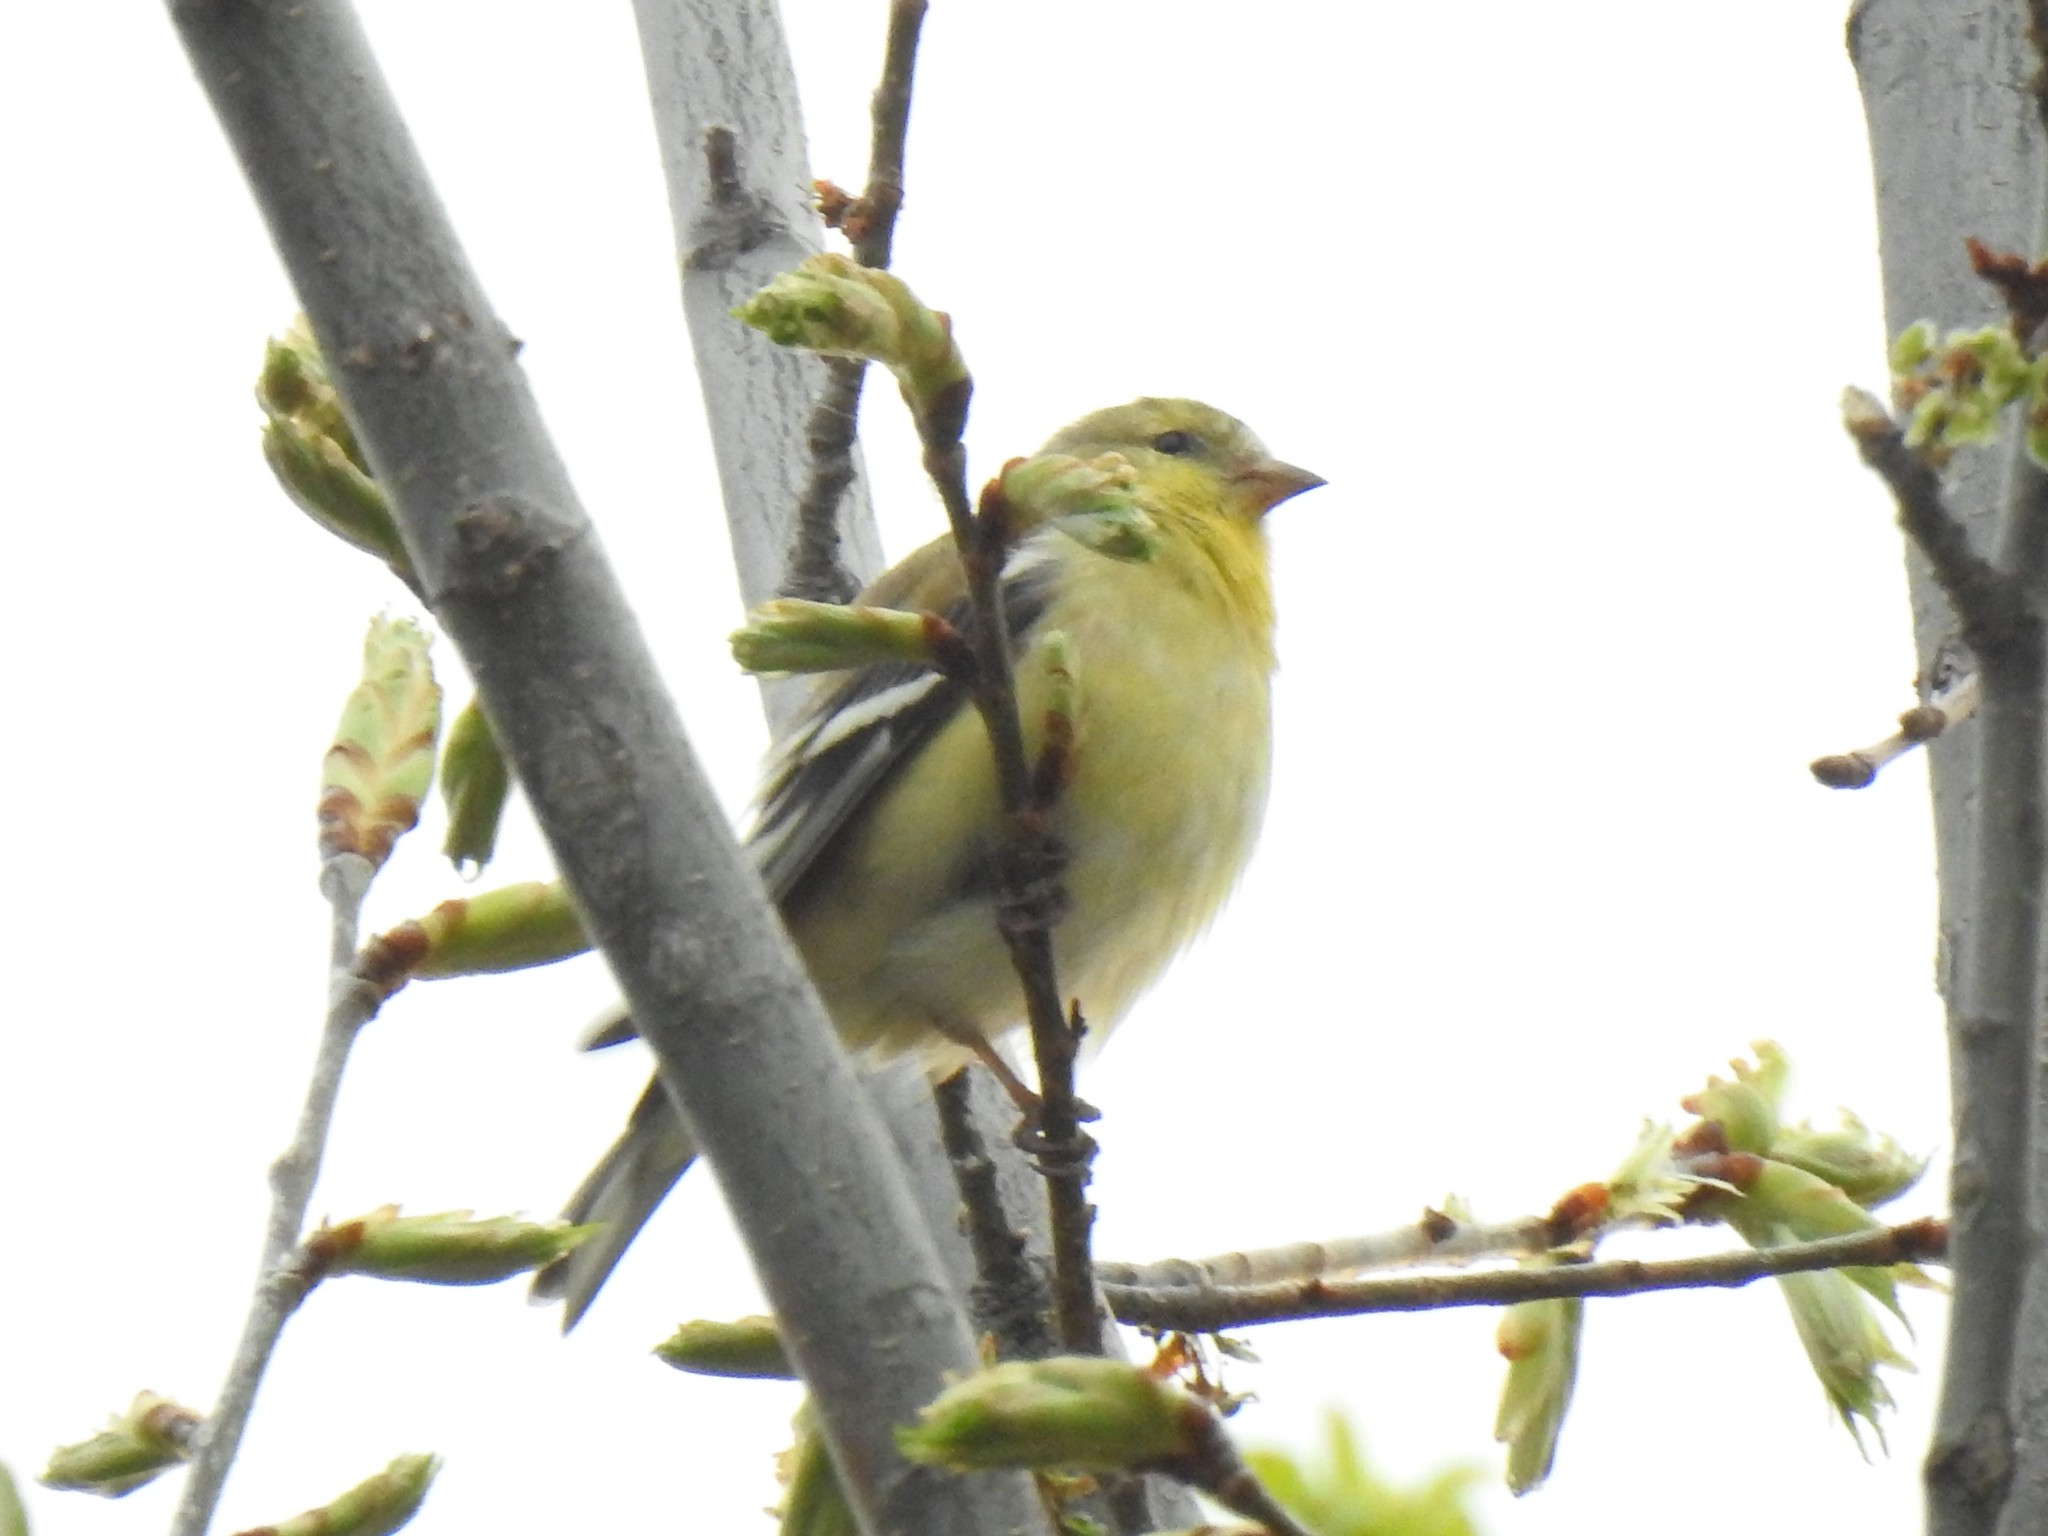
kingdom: Animalia
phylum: Chordata
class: Aves
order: Passeriformes
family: Fringillidae
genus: Spinus
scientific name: Spinus tristis
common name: American goldfinch
